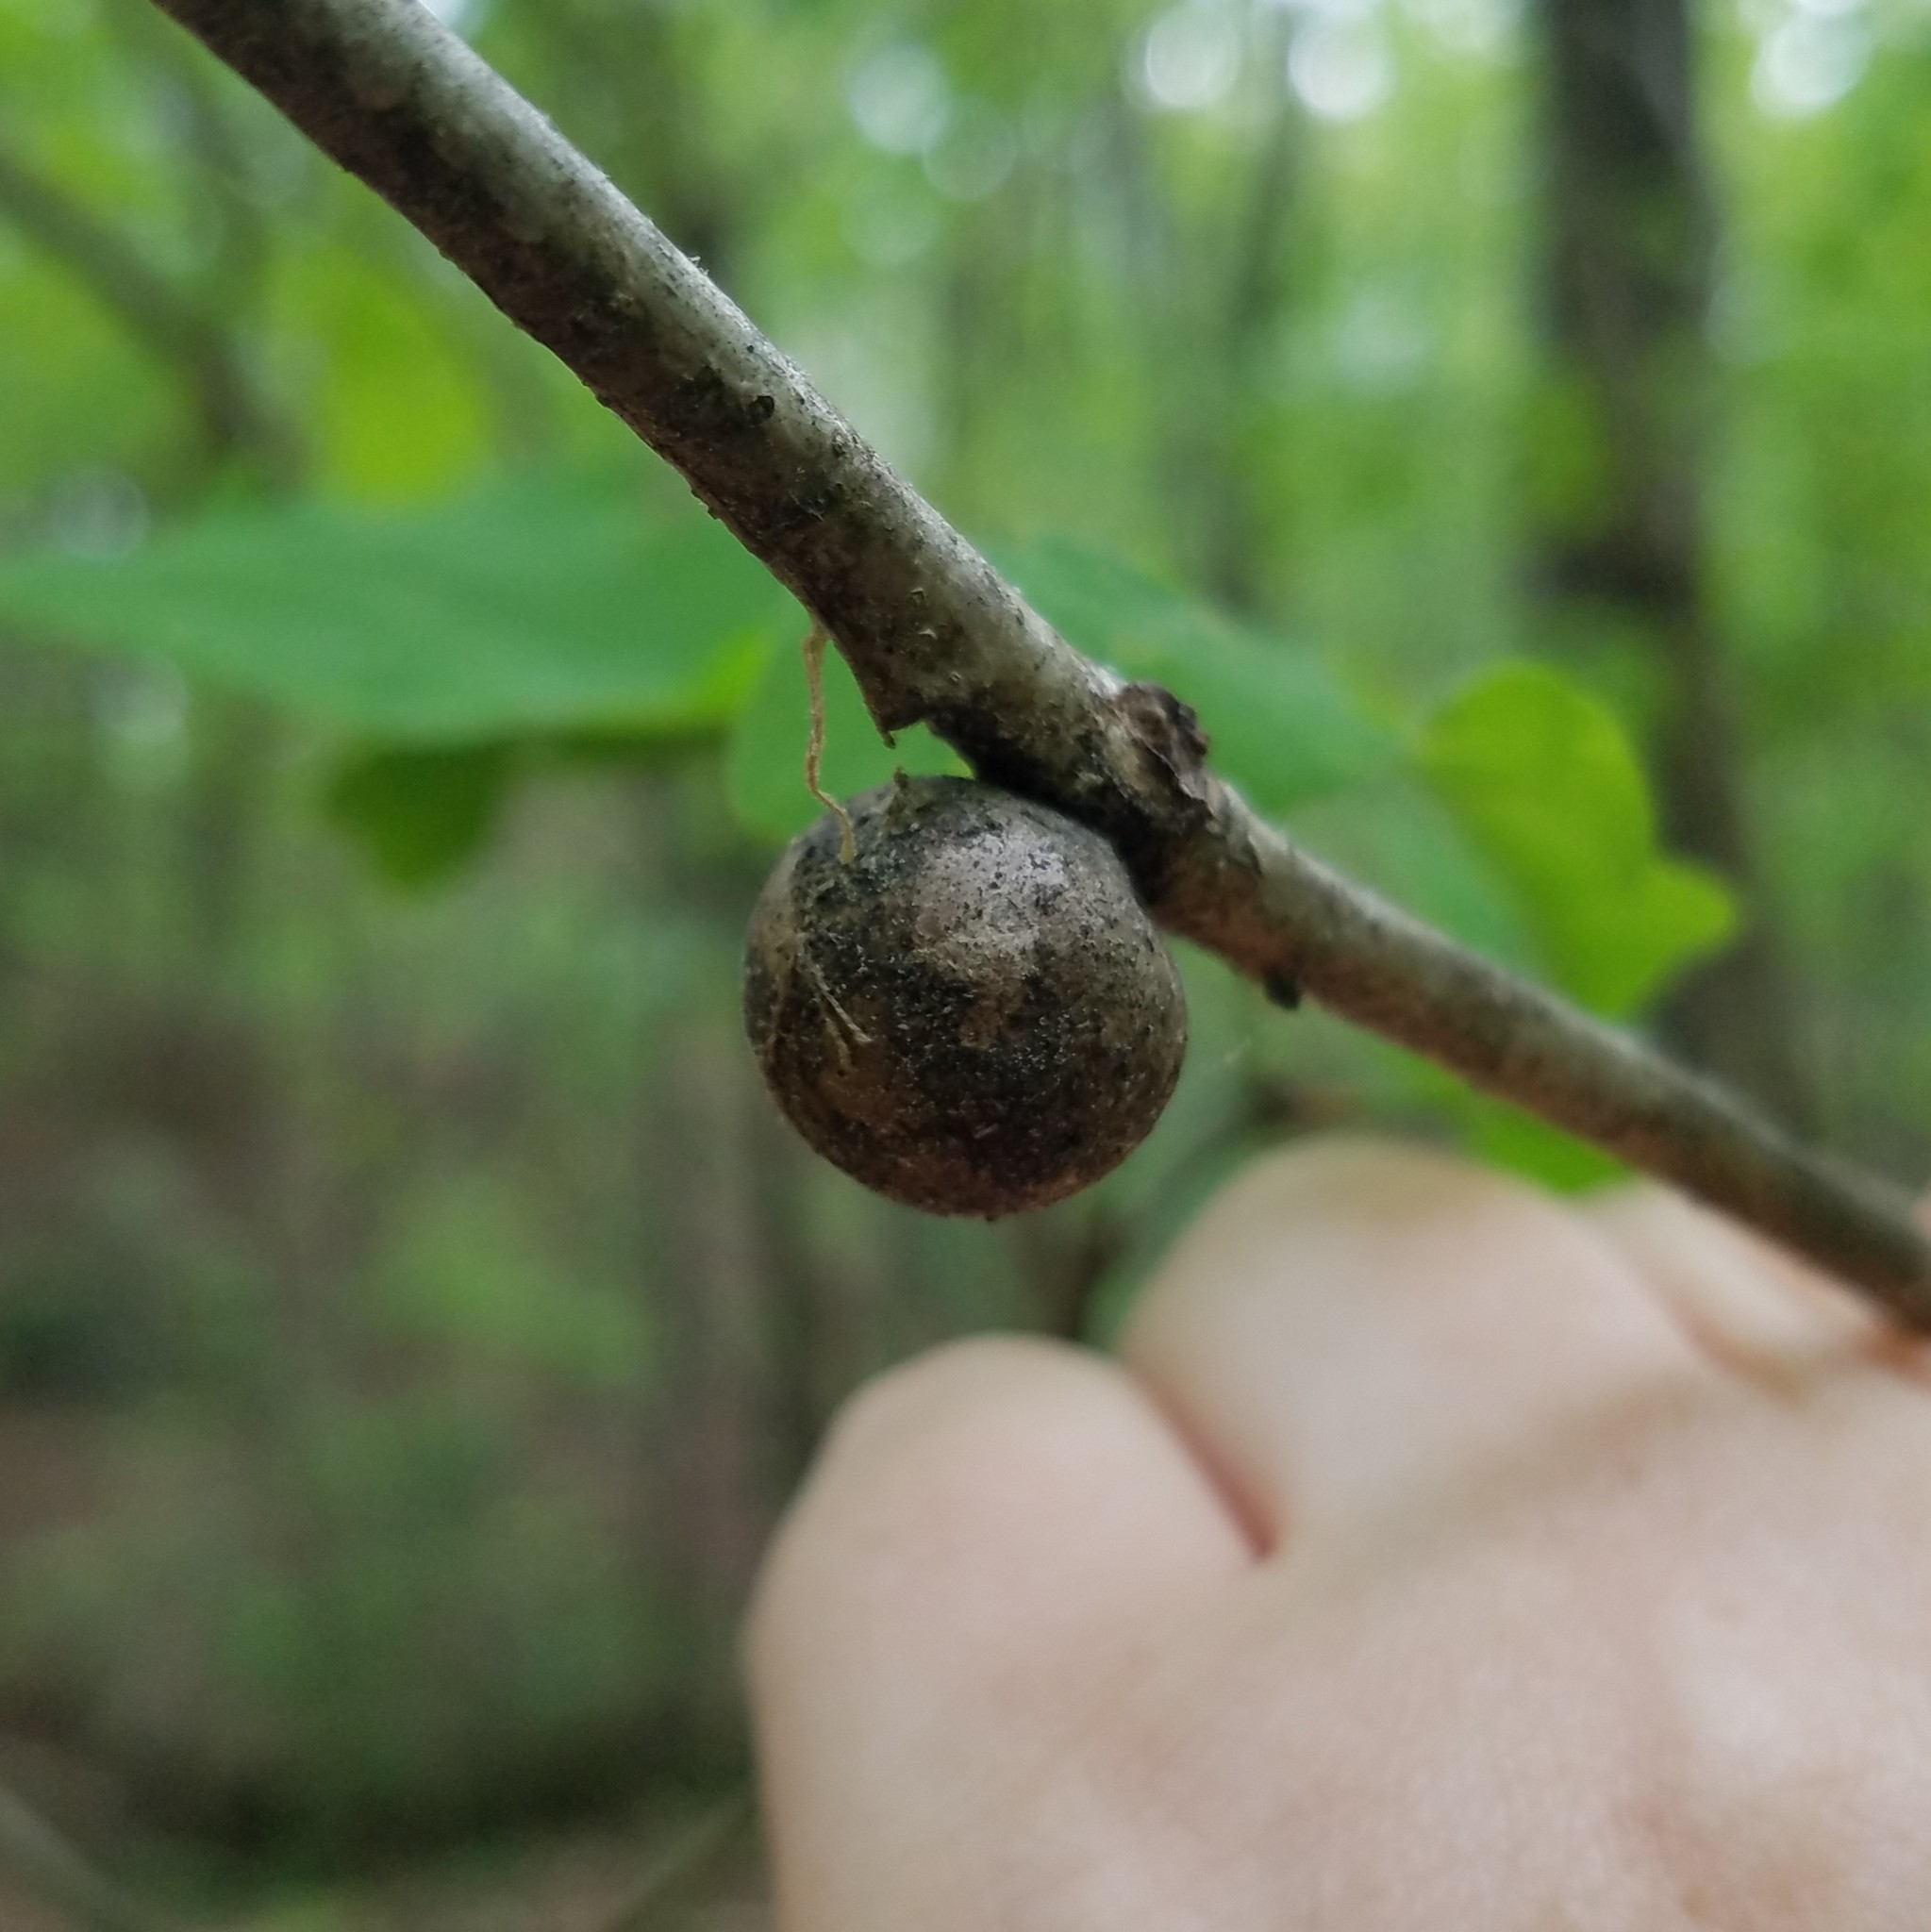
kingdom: Animalia
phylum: Arthropoda
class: Insecta
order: Hymenoptera
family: Cynipidae
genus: Disholcaspis
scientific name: Disholcaspis quercusglobulus
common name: Round bullet gall wasp
